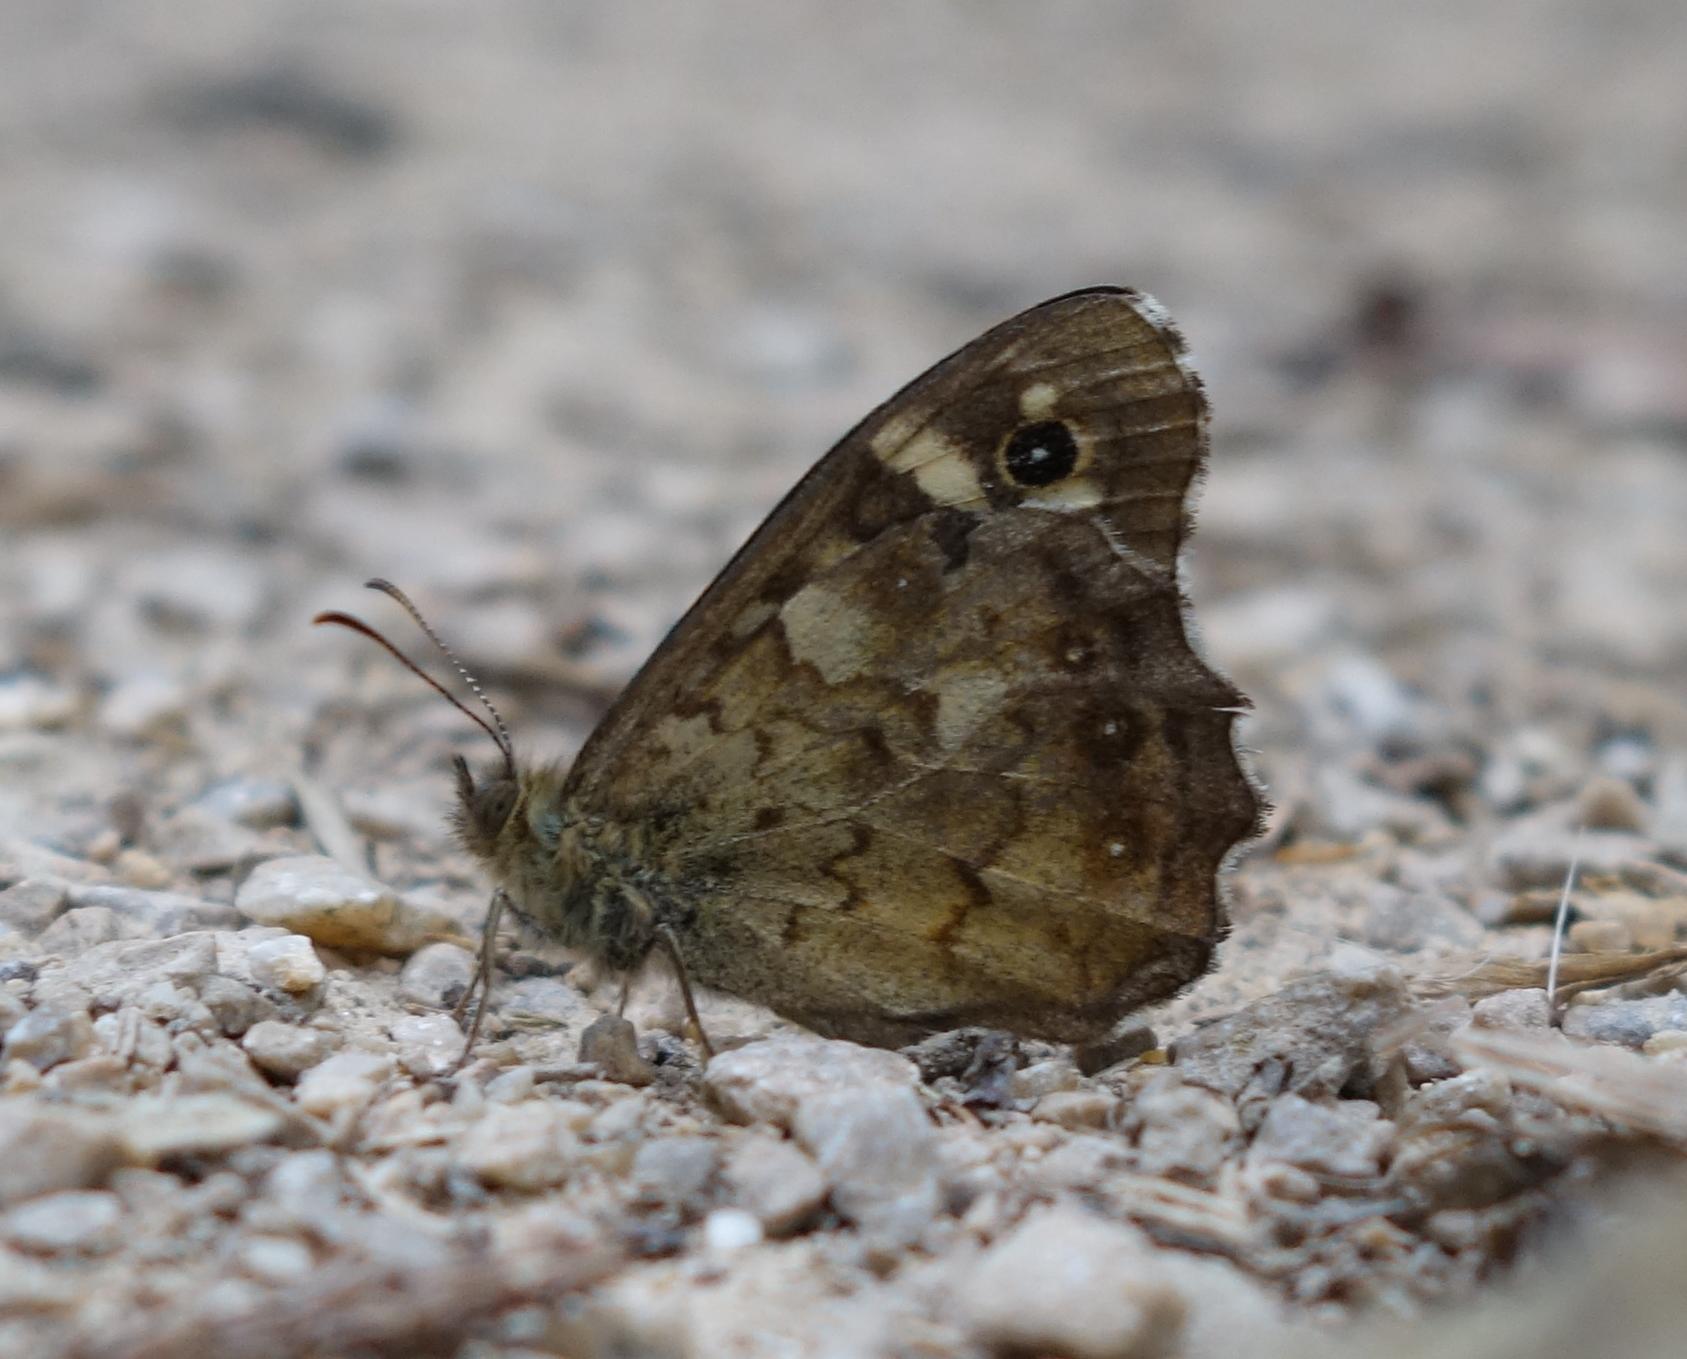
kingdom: Animalia
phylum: Arthropoda
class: Insecta
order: Lepidoptera
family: Nymphalidae
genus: Pararge
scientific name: Pararge aegeria
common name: Speckled wood
